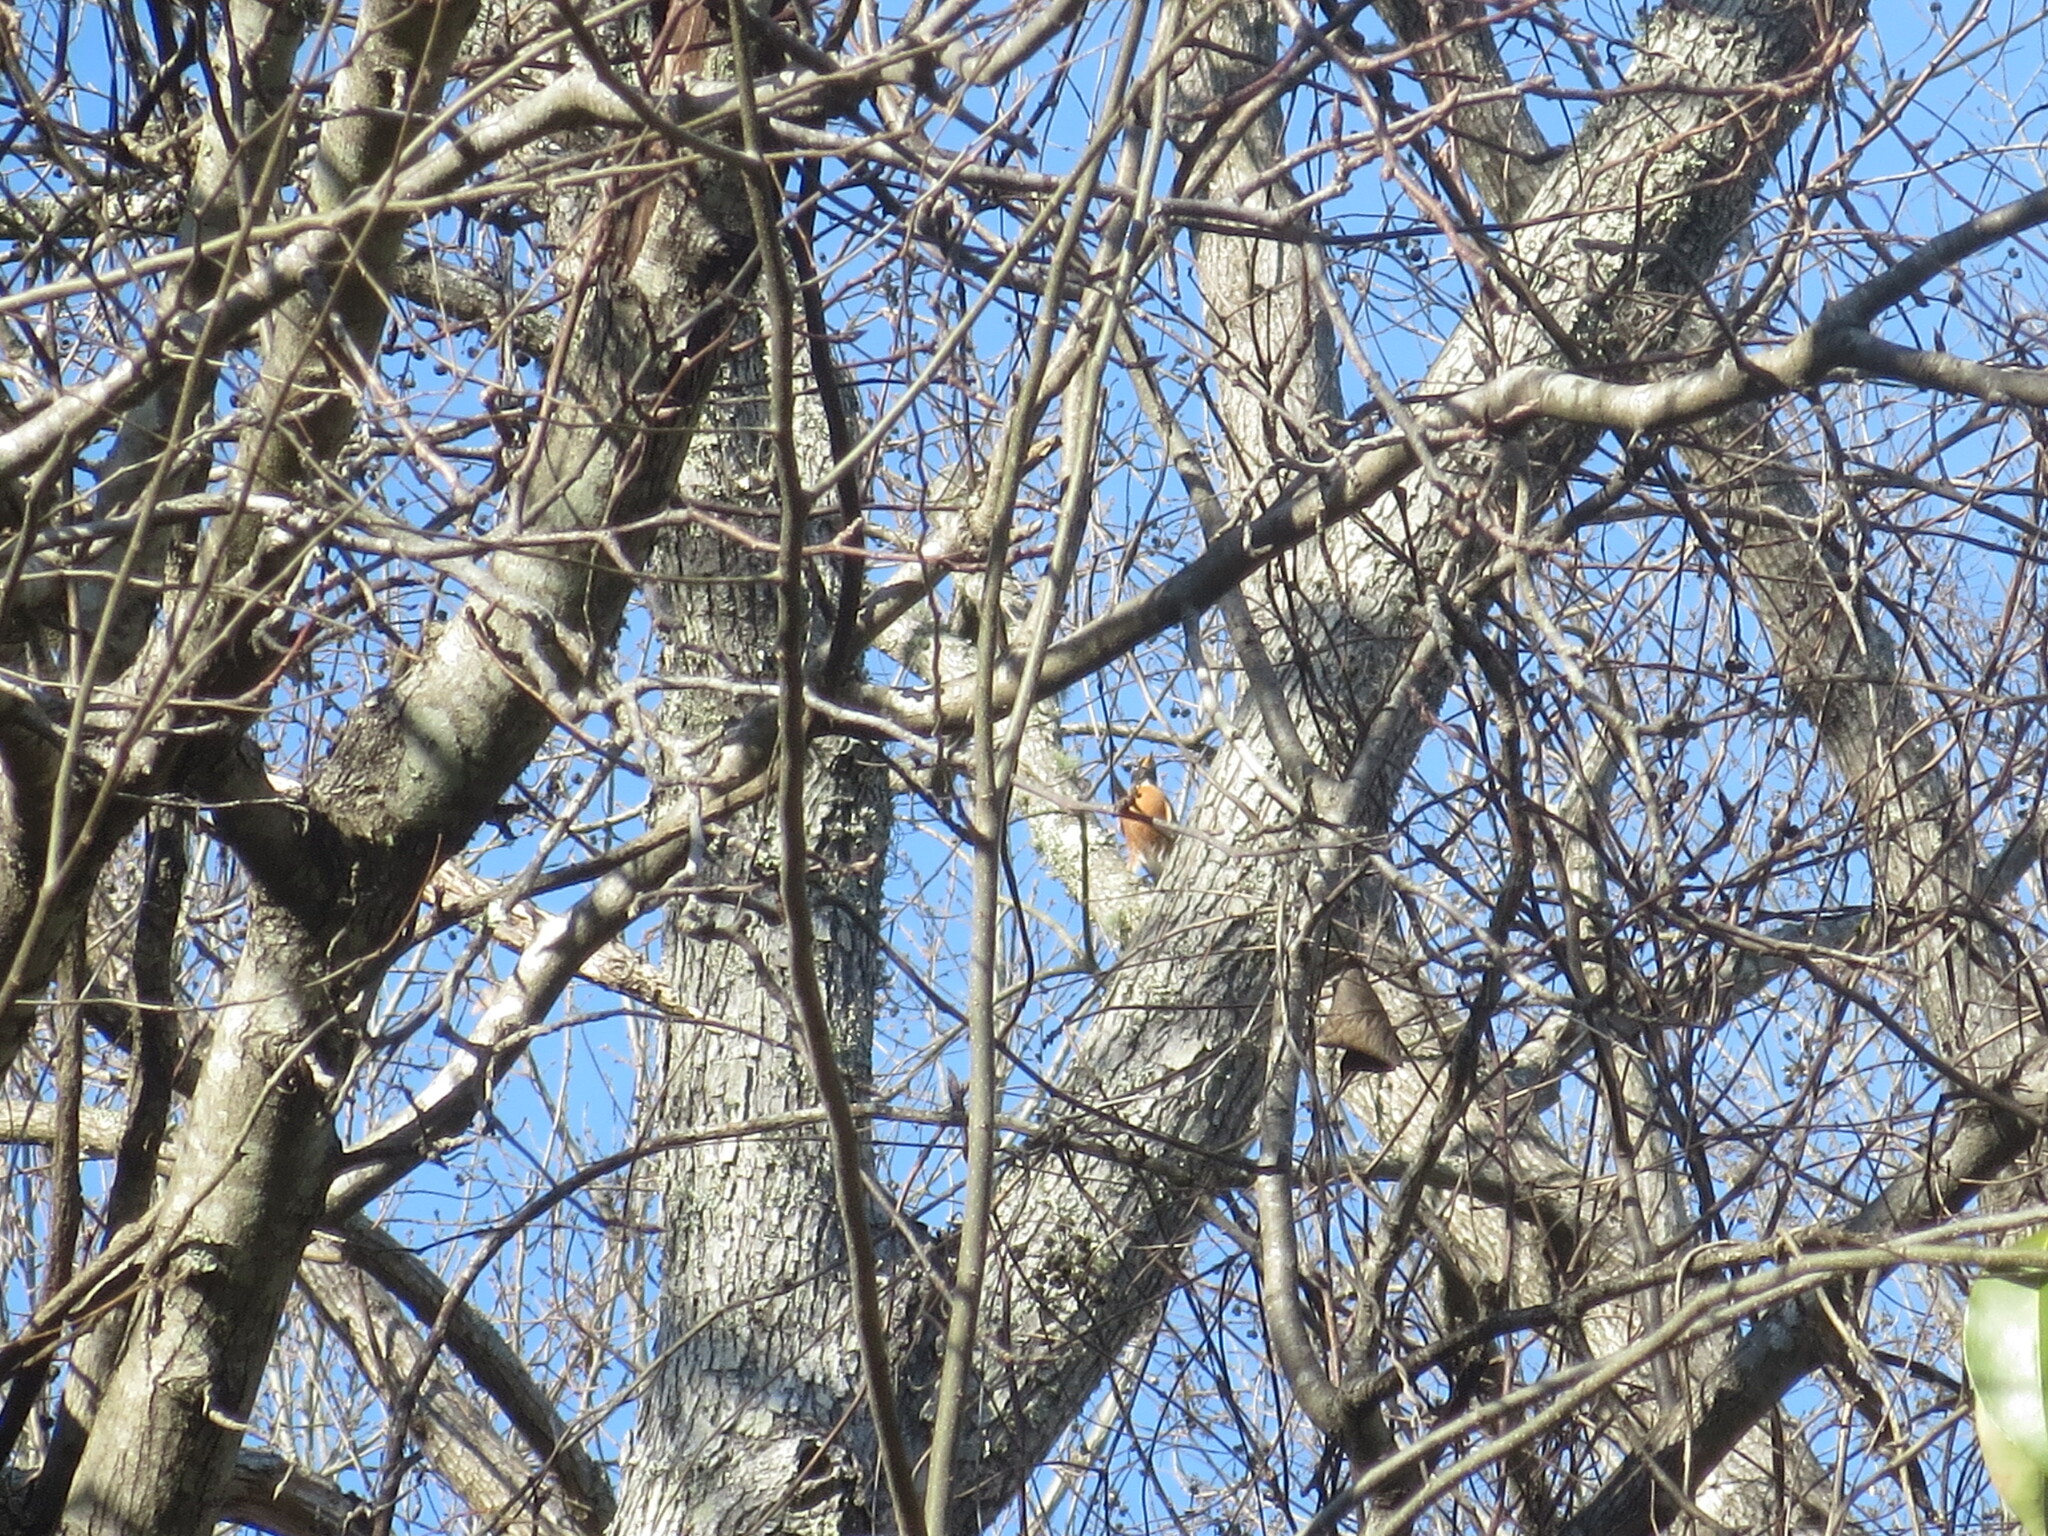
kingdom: Animalia
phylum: Chordata
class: Aves
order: Passeriformes
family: Turdidae
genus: Turdus
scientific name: Turdus migratorius
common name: American robin
